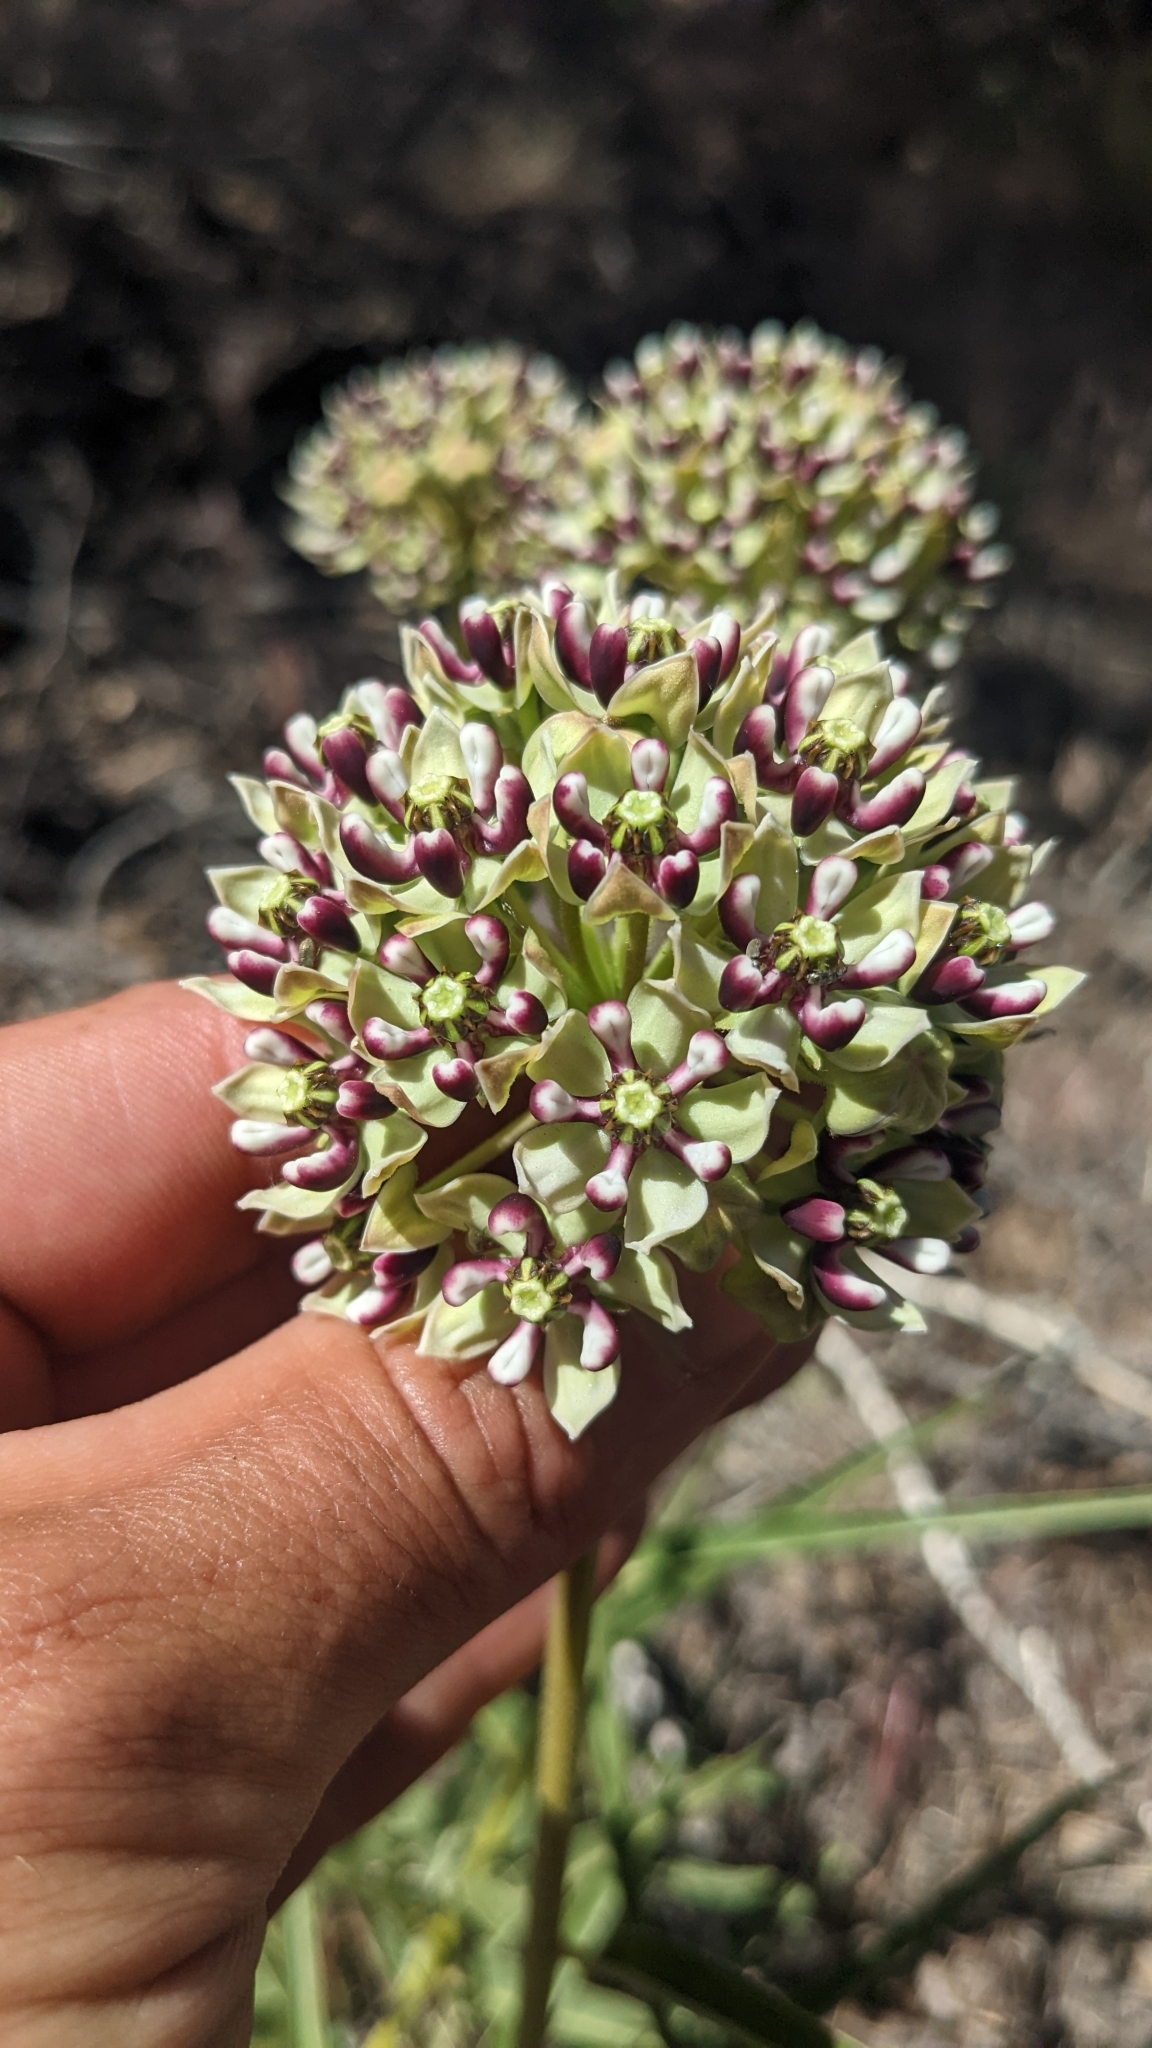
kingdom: Plantae
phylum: Tracheophyta
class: Magnoliopsida
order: Gentianales
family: Apocynaceae
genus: Asclepias
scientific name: Asclepias asperula
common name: Antelope horns
